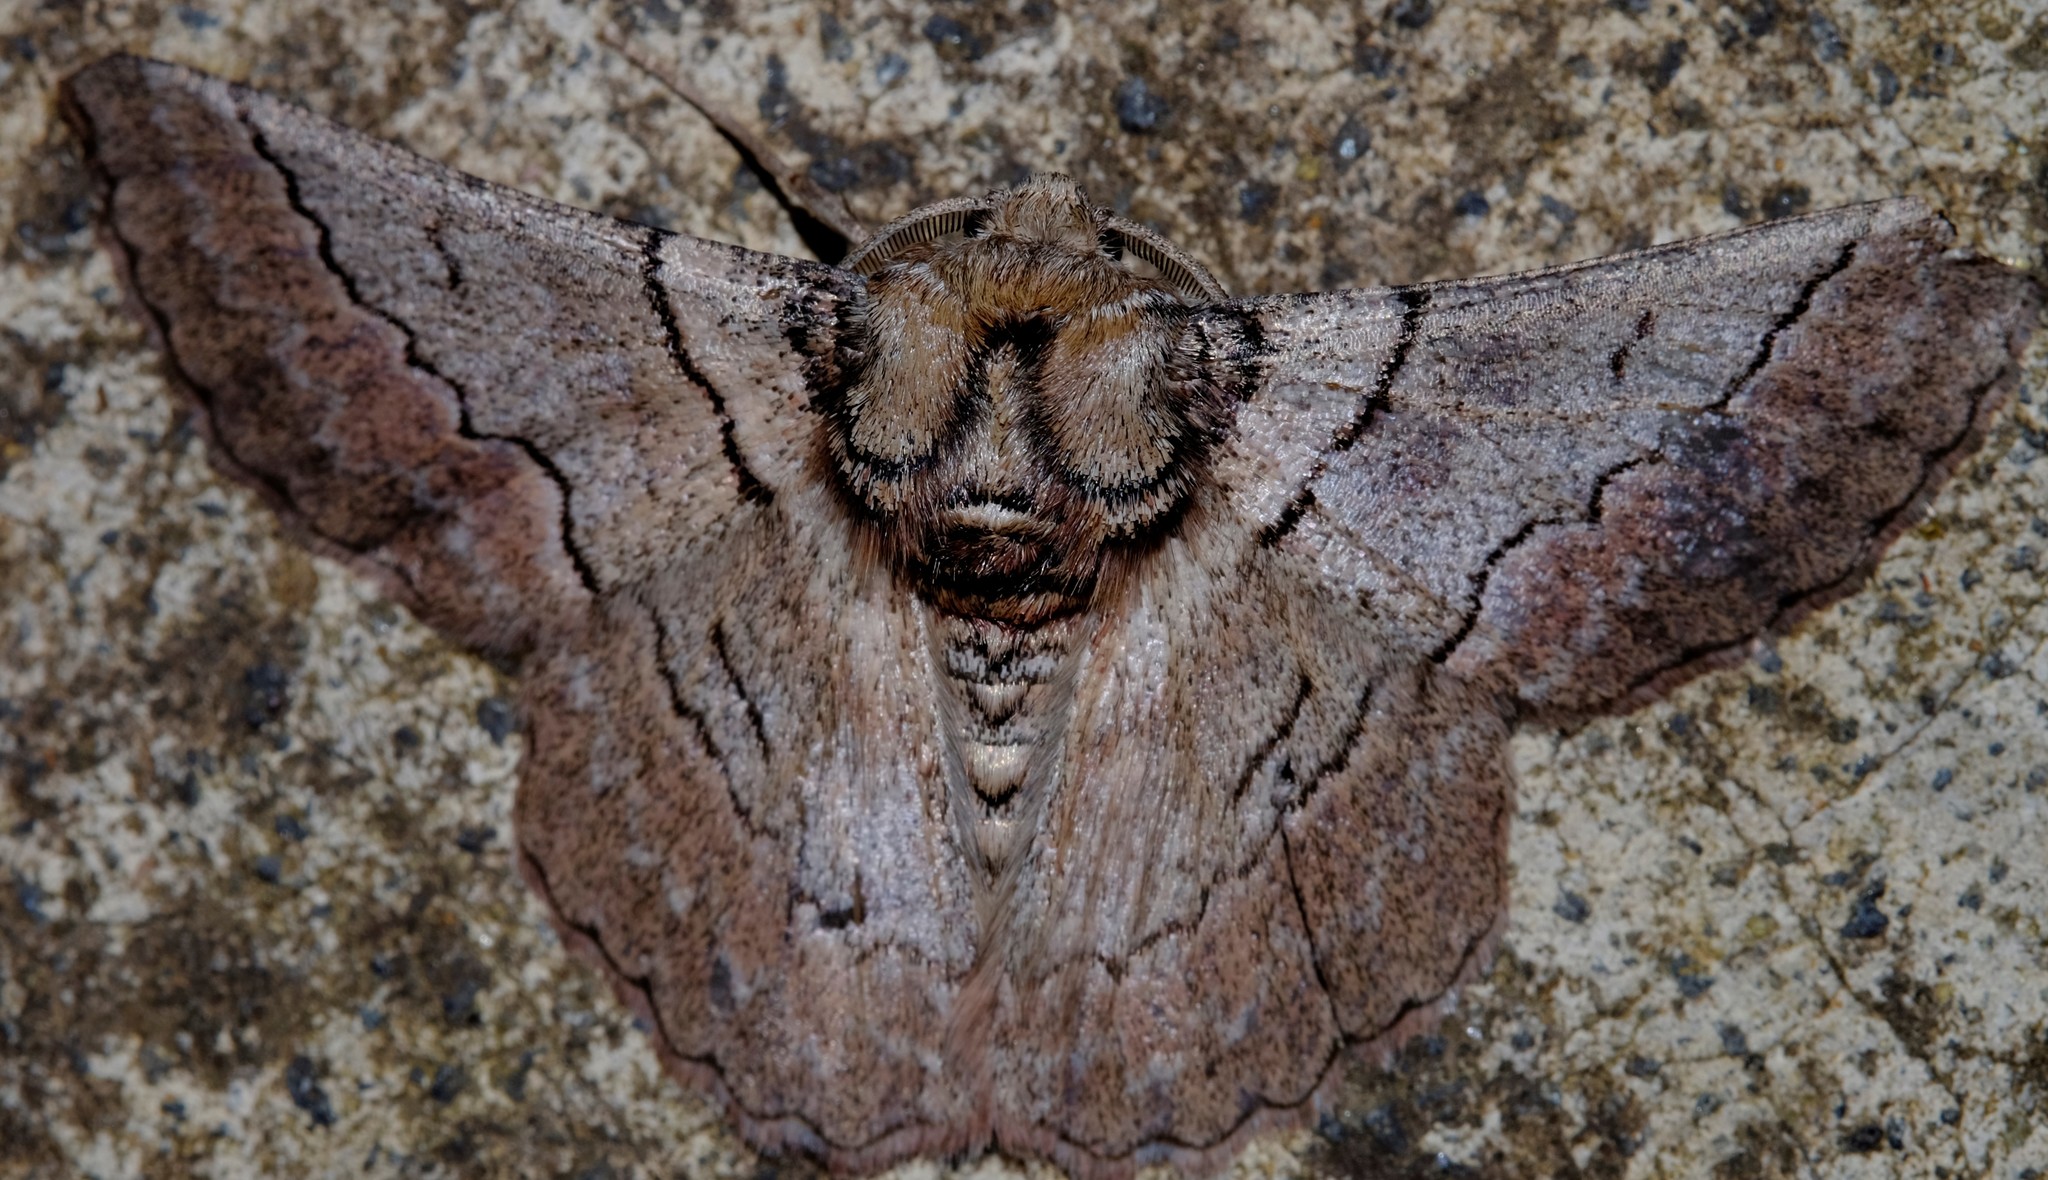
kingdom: Animalia
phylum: Arthropoda
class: Insecta
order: Lepidoptera
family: Geometridae
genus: Hypobapta
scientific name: Hypobapta tachyhalotaria
